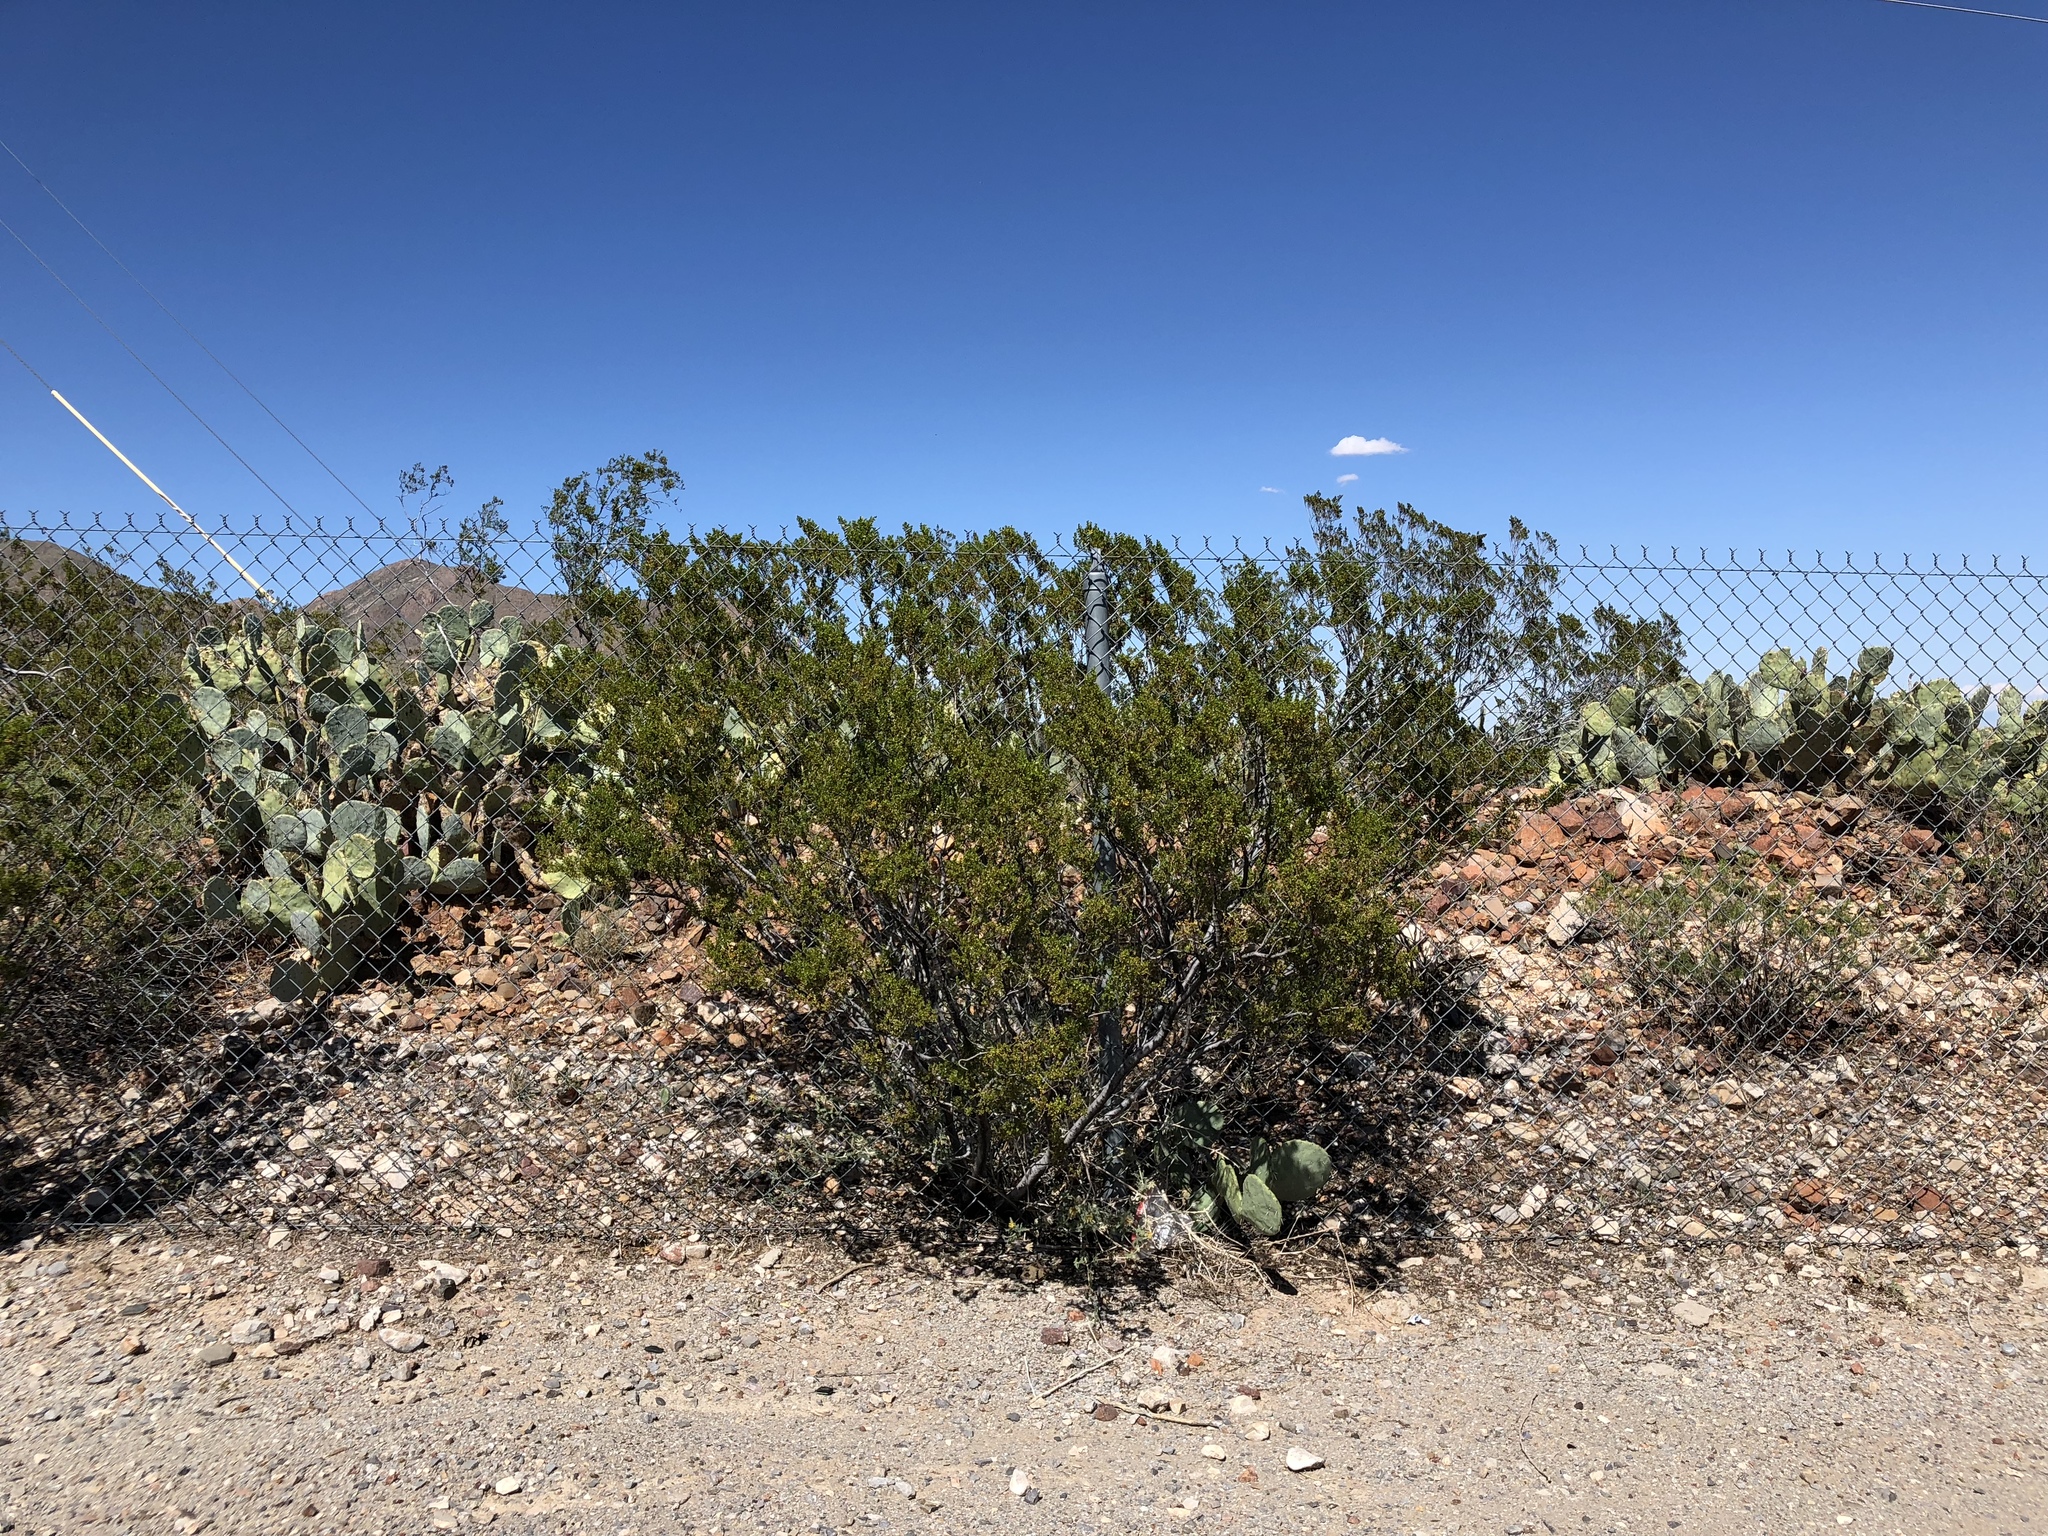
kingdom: Plantae
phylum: Tracheophyta
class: Magnoliopsida
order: Zygophyllales
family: Zygophyllaceae
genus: Larrea
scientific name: Larrea tridentata
